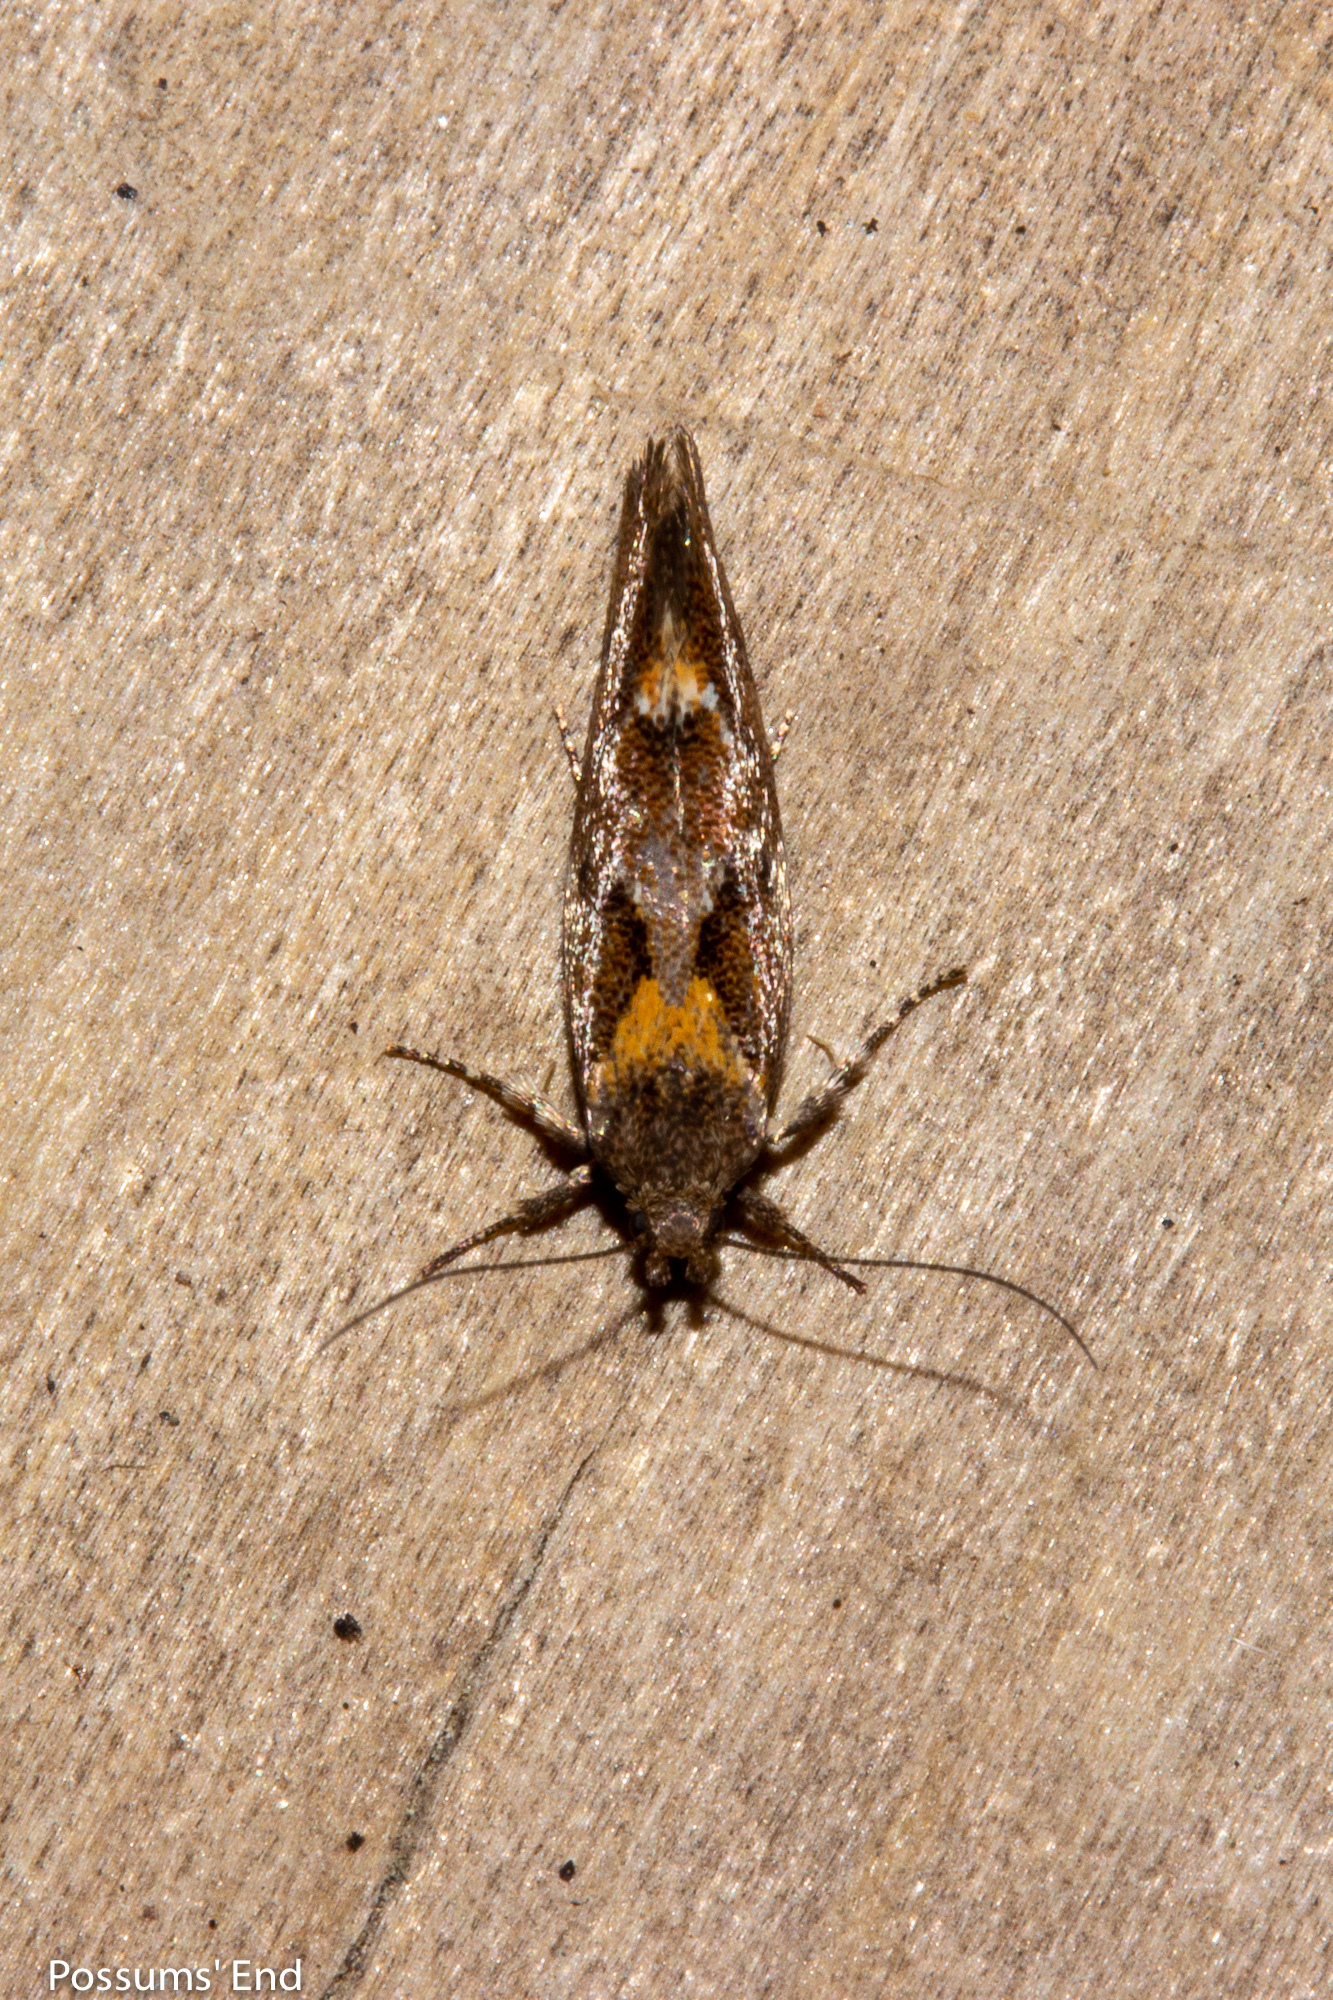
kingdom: Animalia
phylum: Arthropoda
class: Insecta
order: Lepidoptera
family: Oecophoridae
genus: Tingena
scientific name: Tingena
